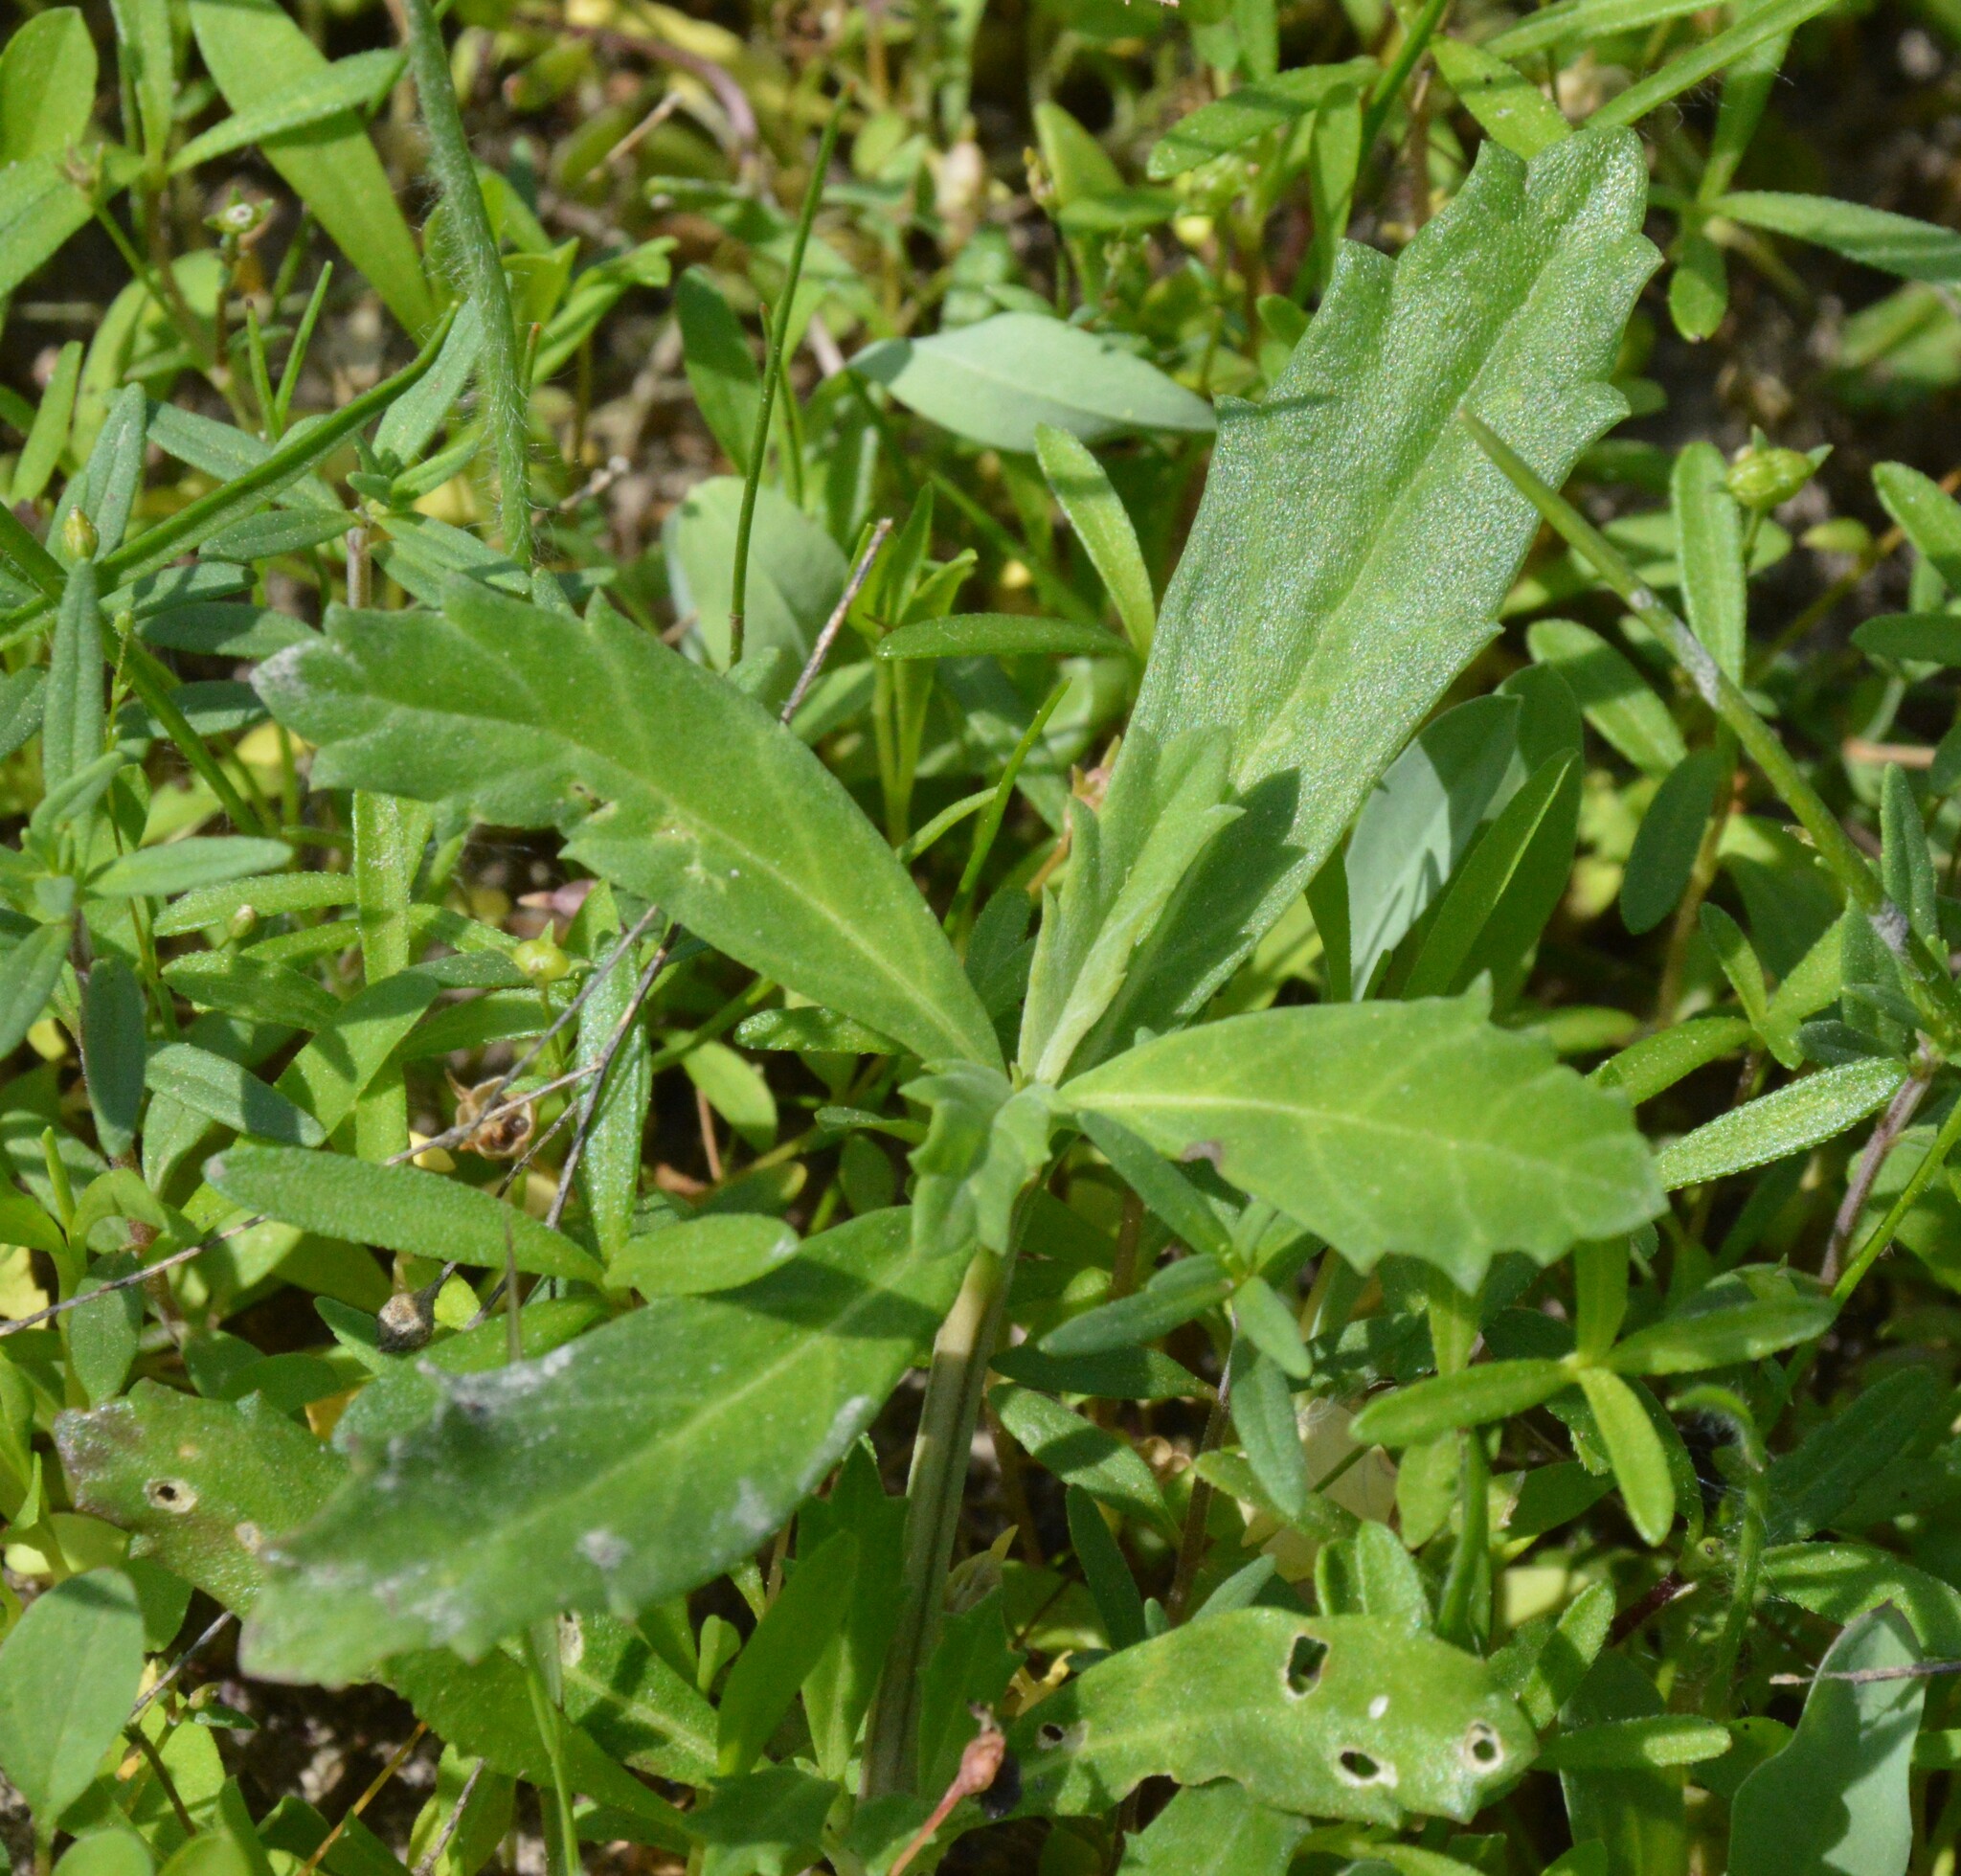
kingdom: Plantae
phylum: Tracheophyta
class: Magnoliopsida
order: Lamiales
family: Verbenaceae
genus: Phyla
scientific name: Phyla nodiflora
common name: Frogfruit
